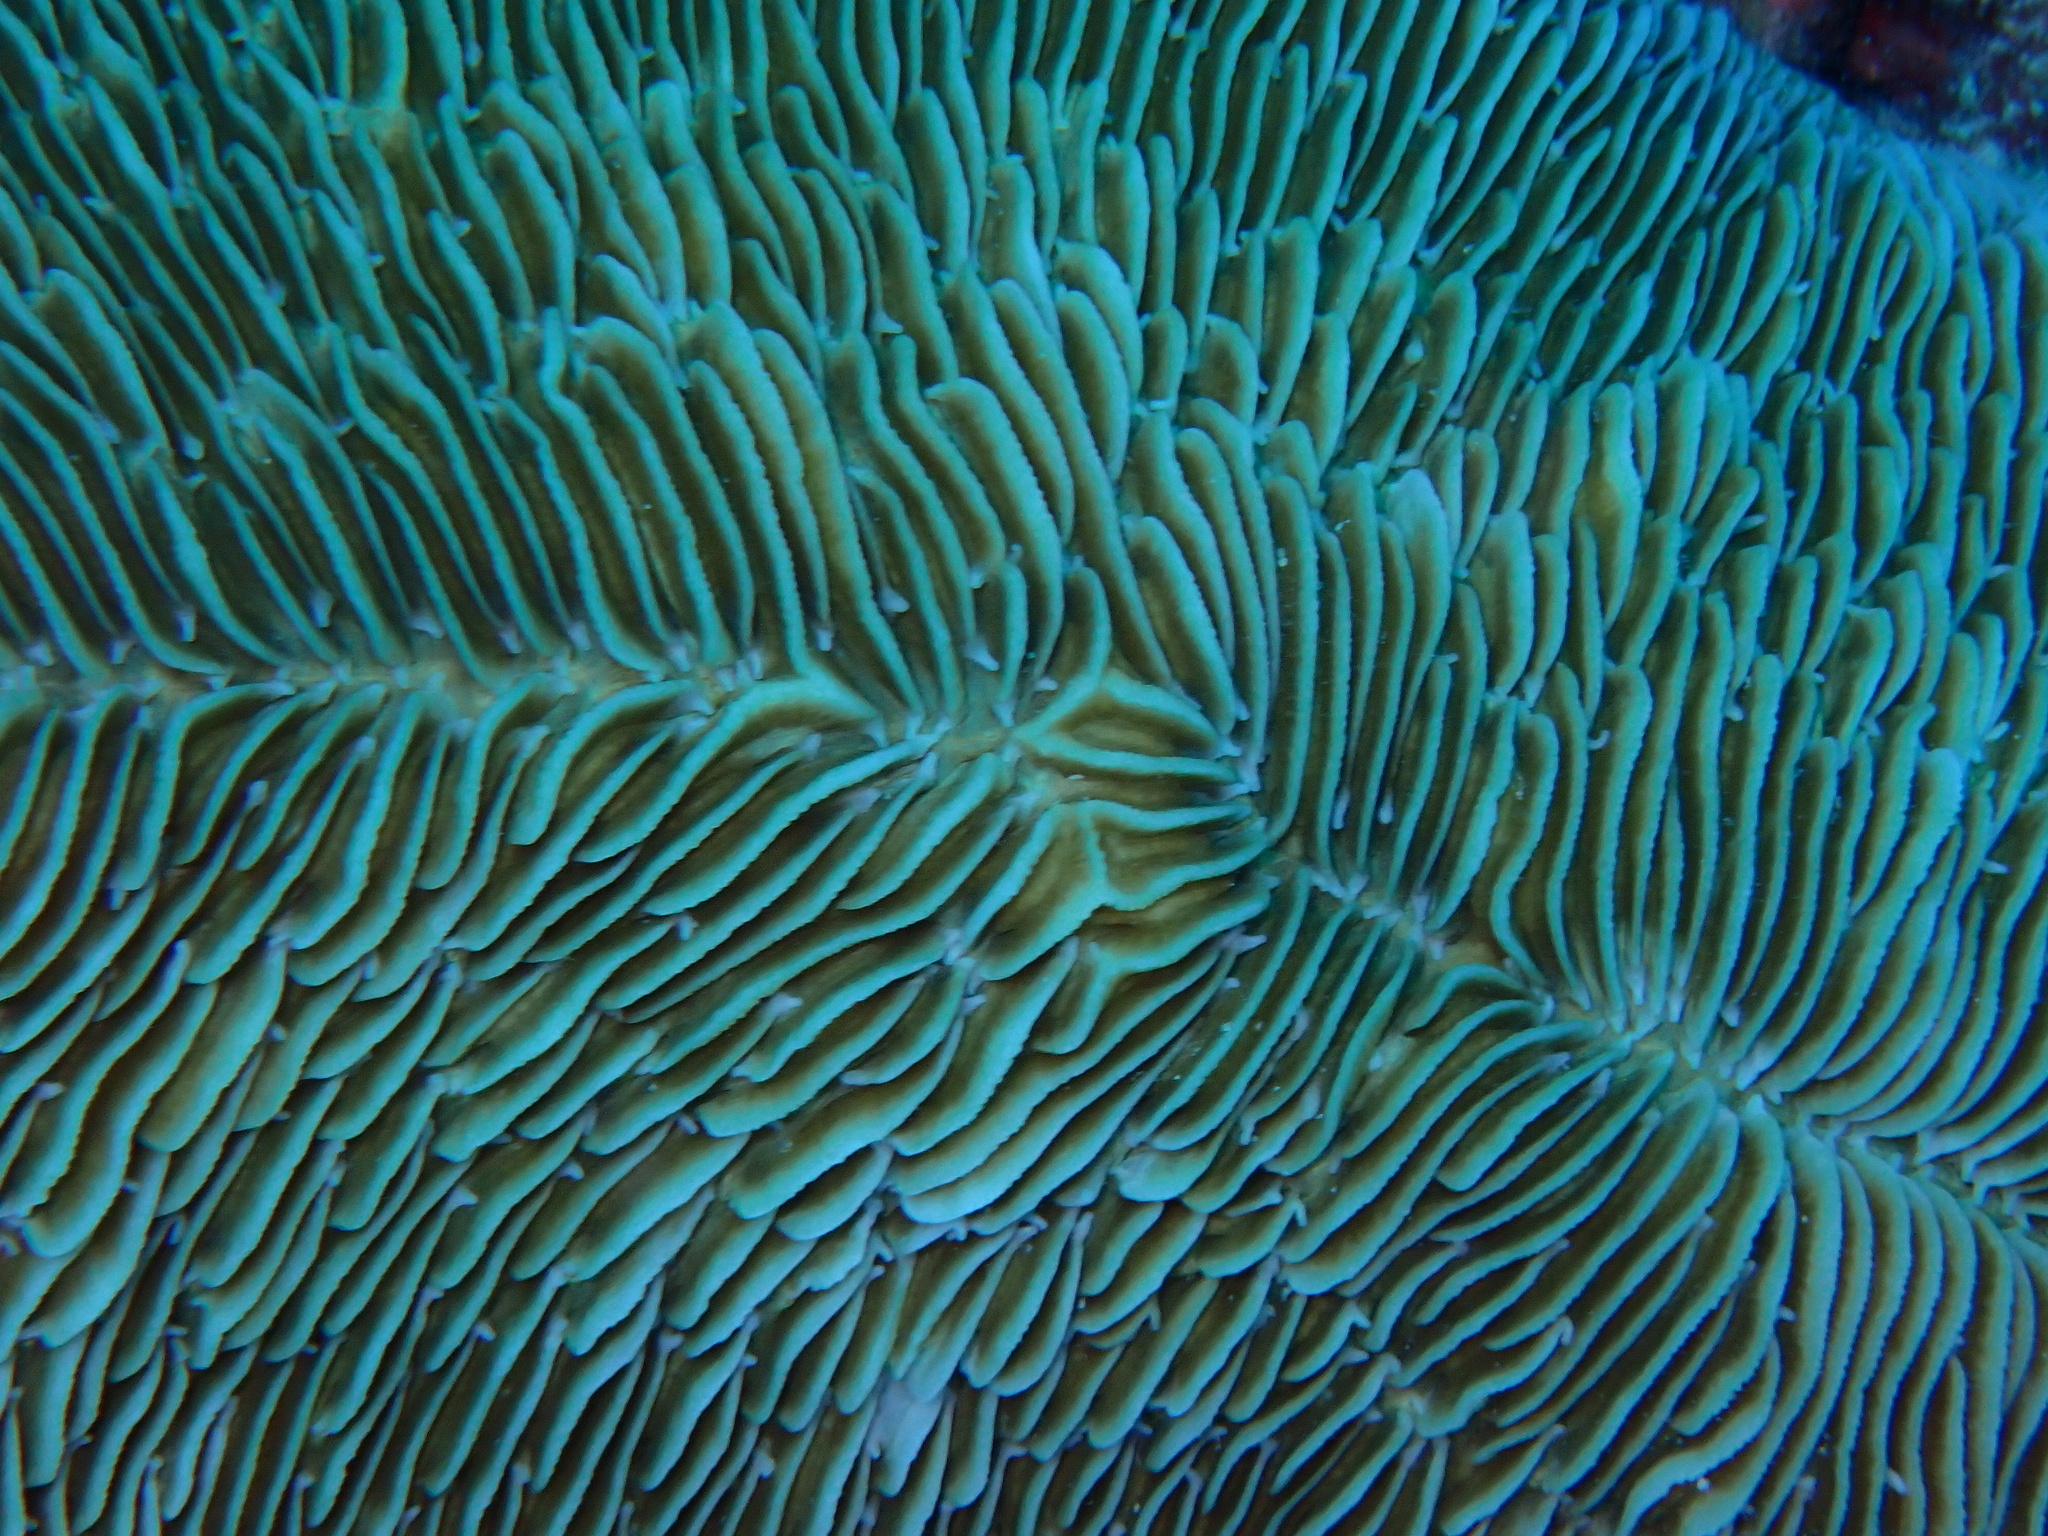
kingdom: Animalia
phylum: Cnidaria
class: Anthozoa
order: Scleractinia
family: Fungiidae
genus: Herpolitha
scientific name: Herpolitha limax
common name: Striate boomerang coral
